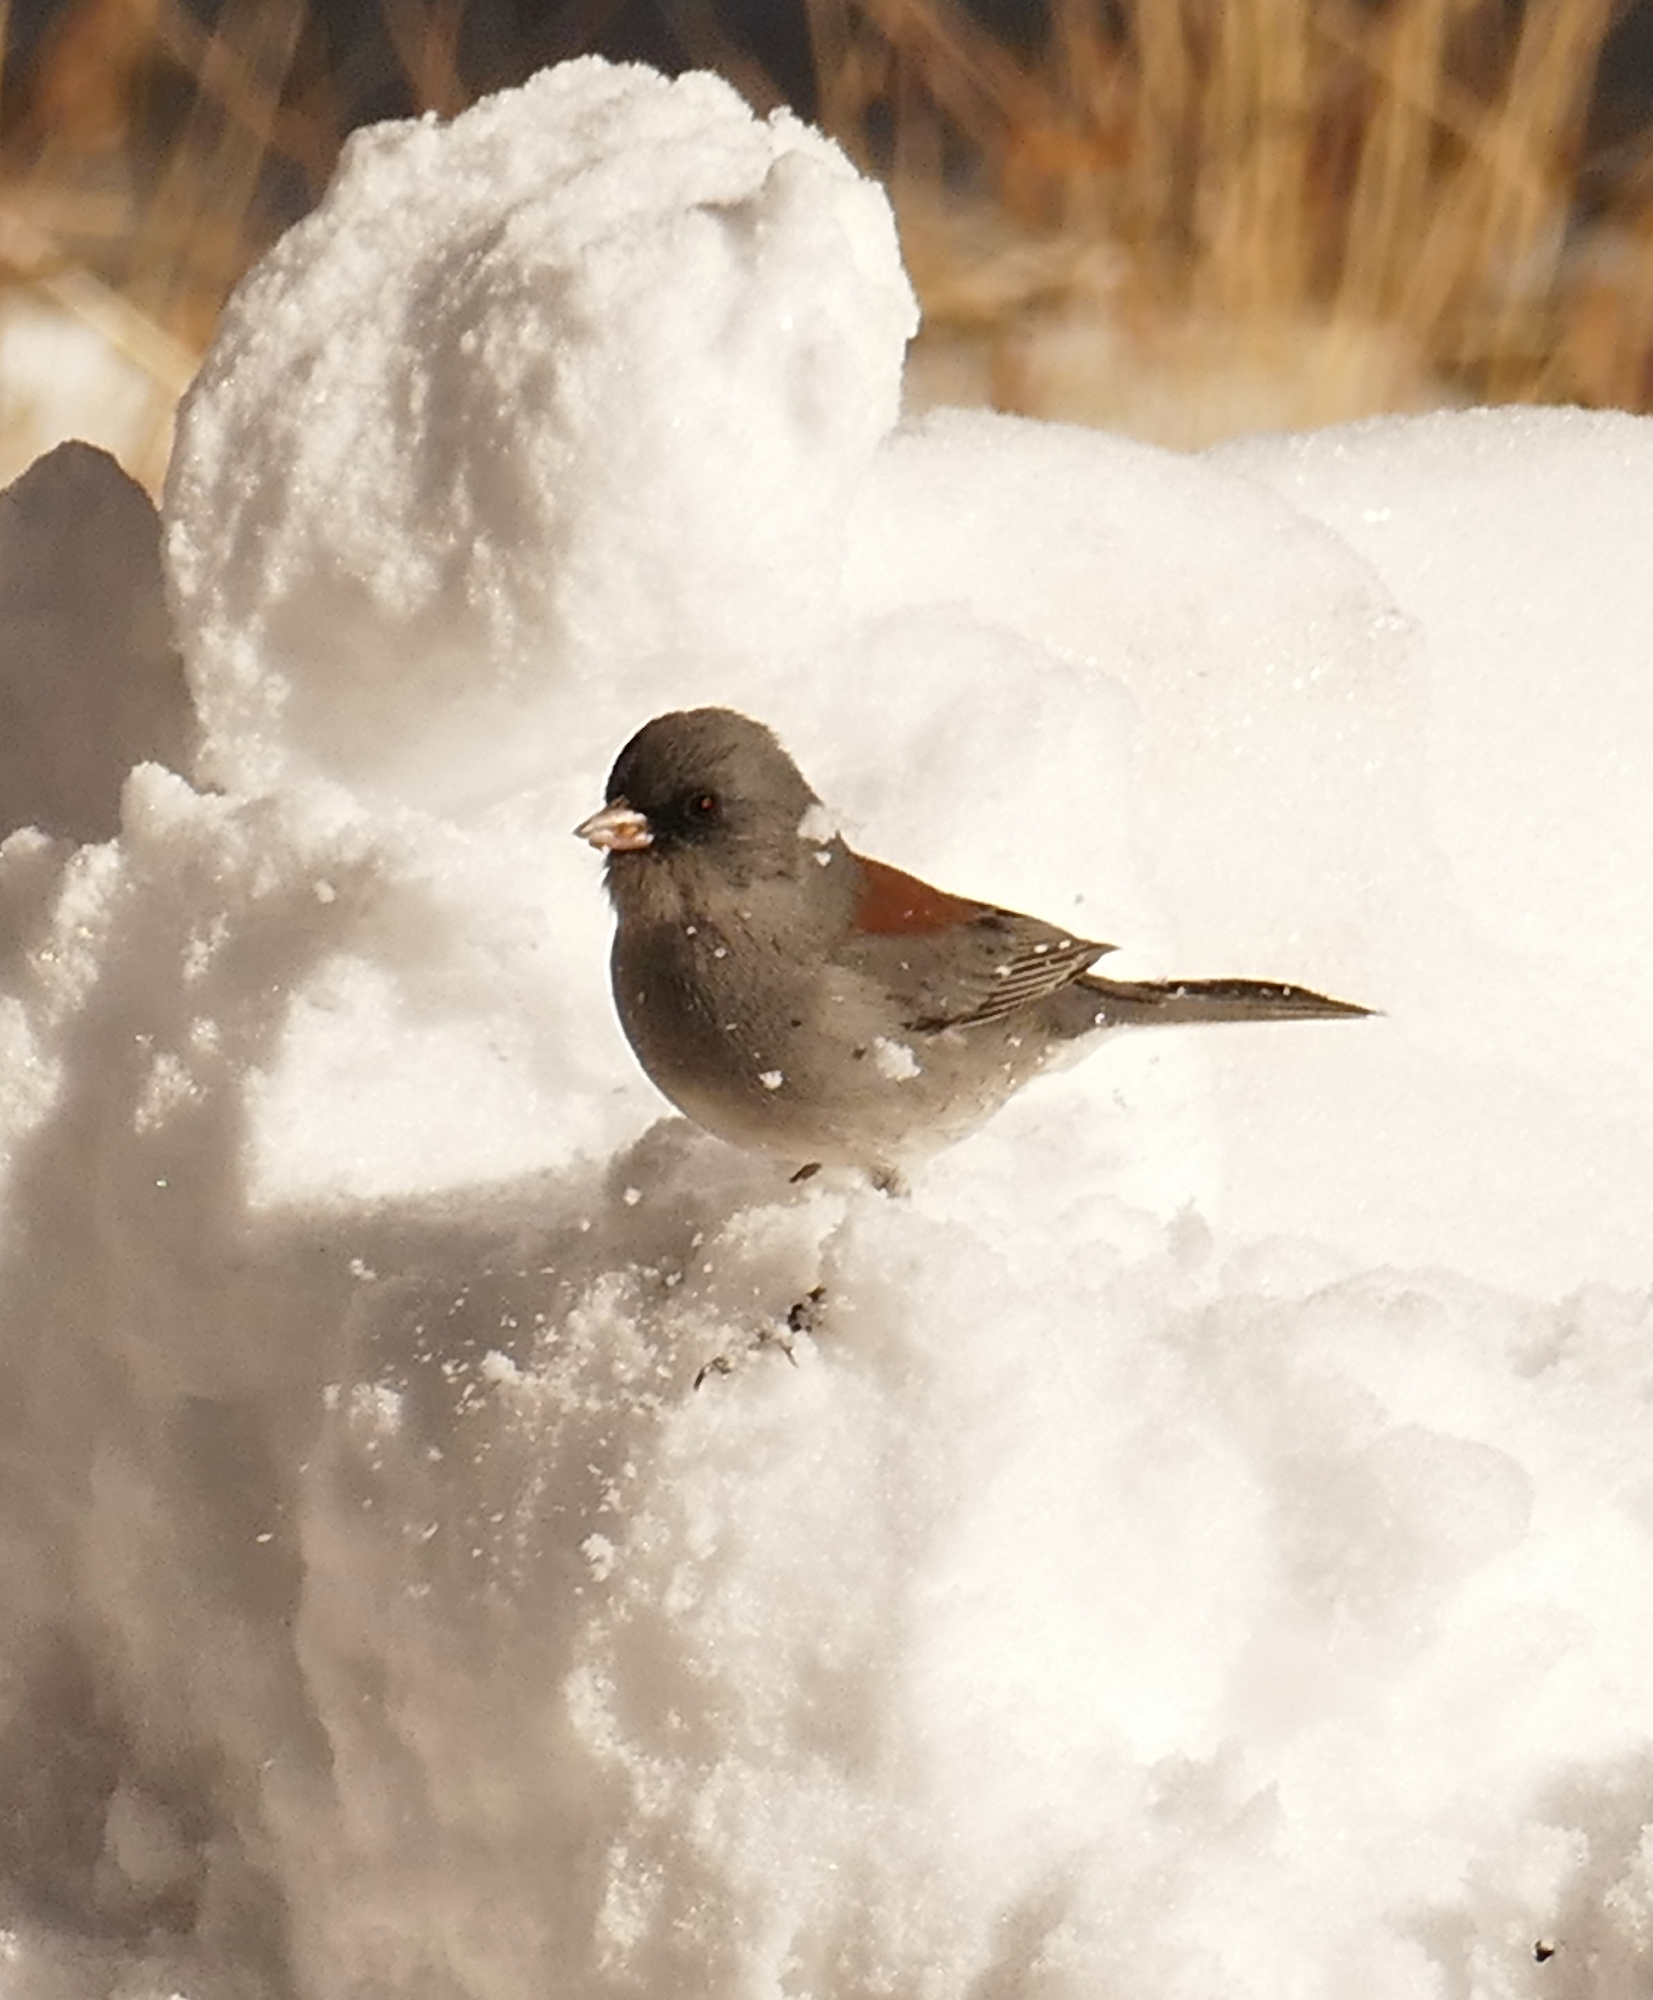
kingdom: Animalia
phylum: Chordata
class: Aves
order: Passeriformes
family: Passerellidae
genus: Junco
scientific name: Junco hyemalis
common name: Dark-eyed junco
